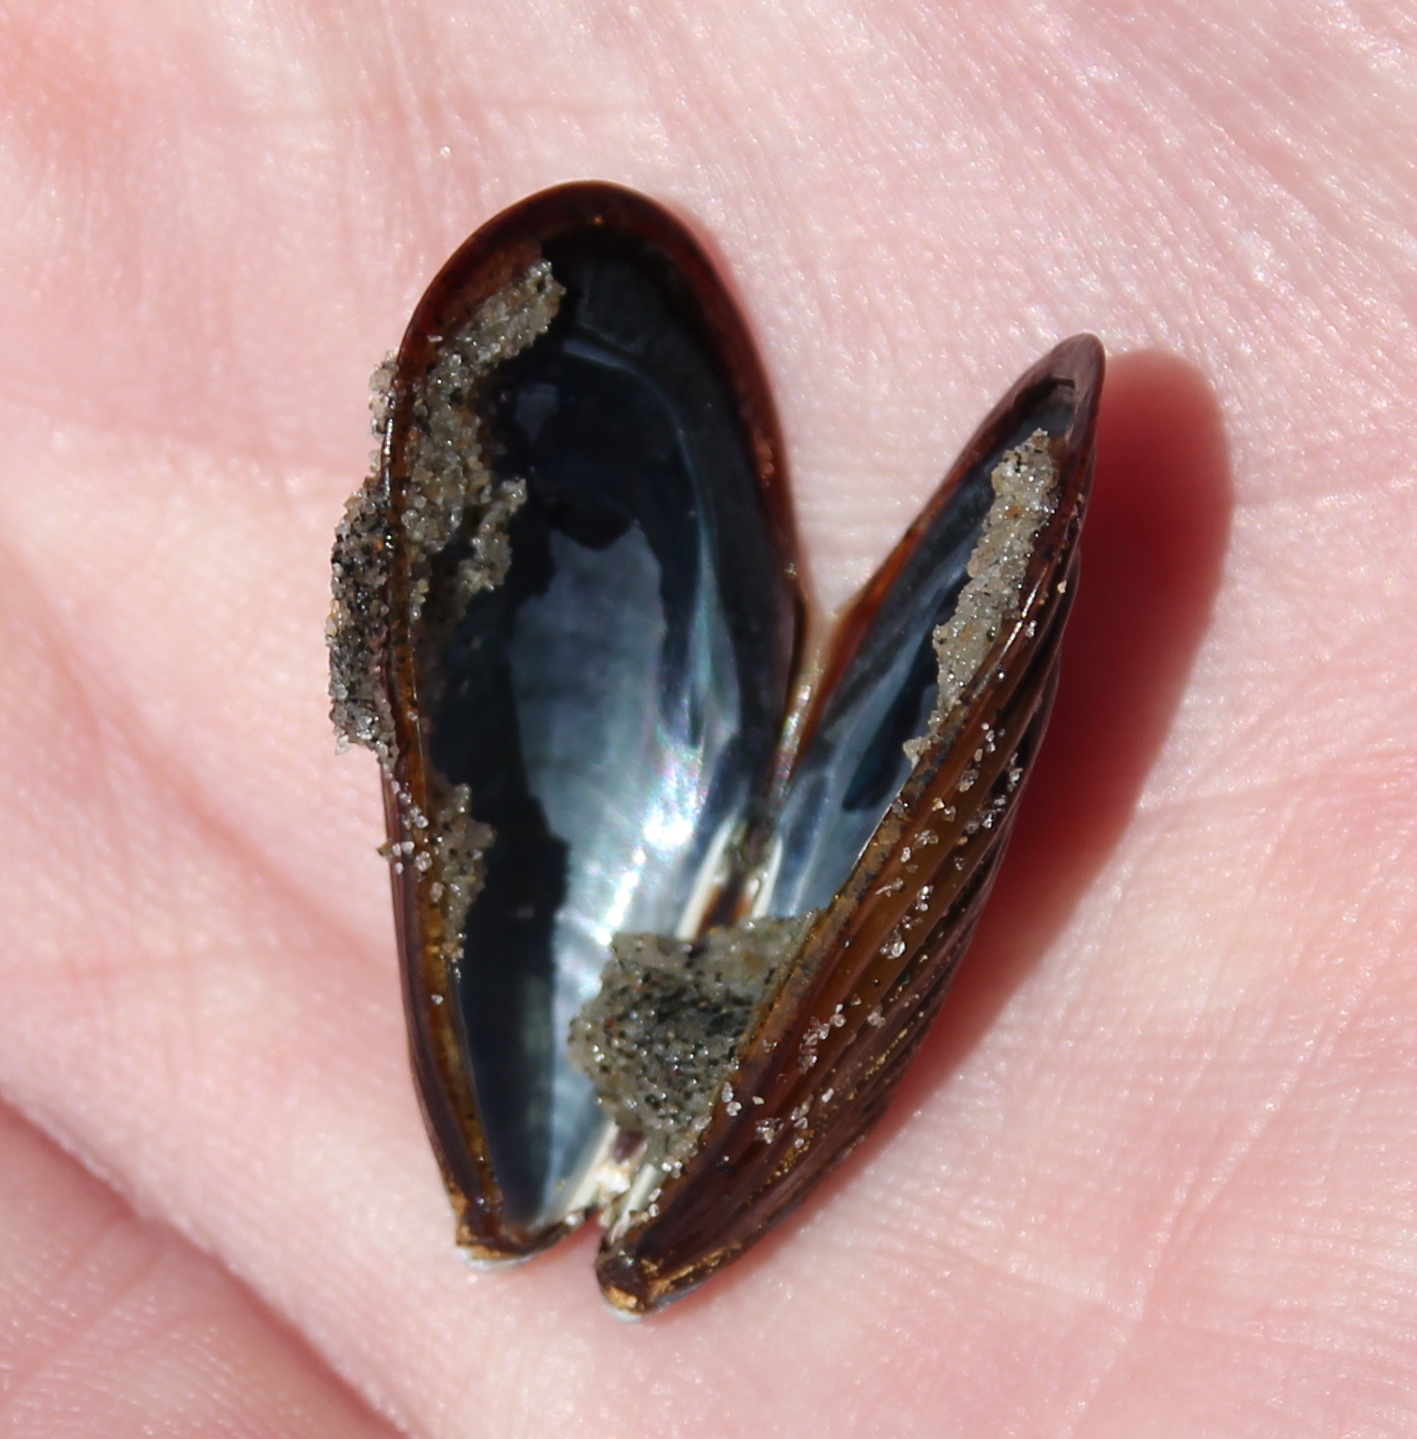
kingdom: Animalia
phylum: Mollusca
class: Bivalvia
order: Mytilida
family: Mytilidae
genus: Mytilus
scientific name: Mytilus californianus
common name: California mussel
